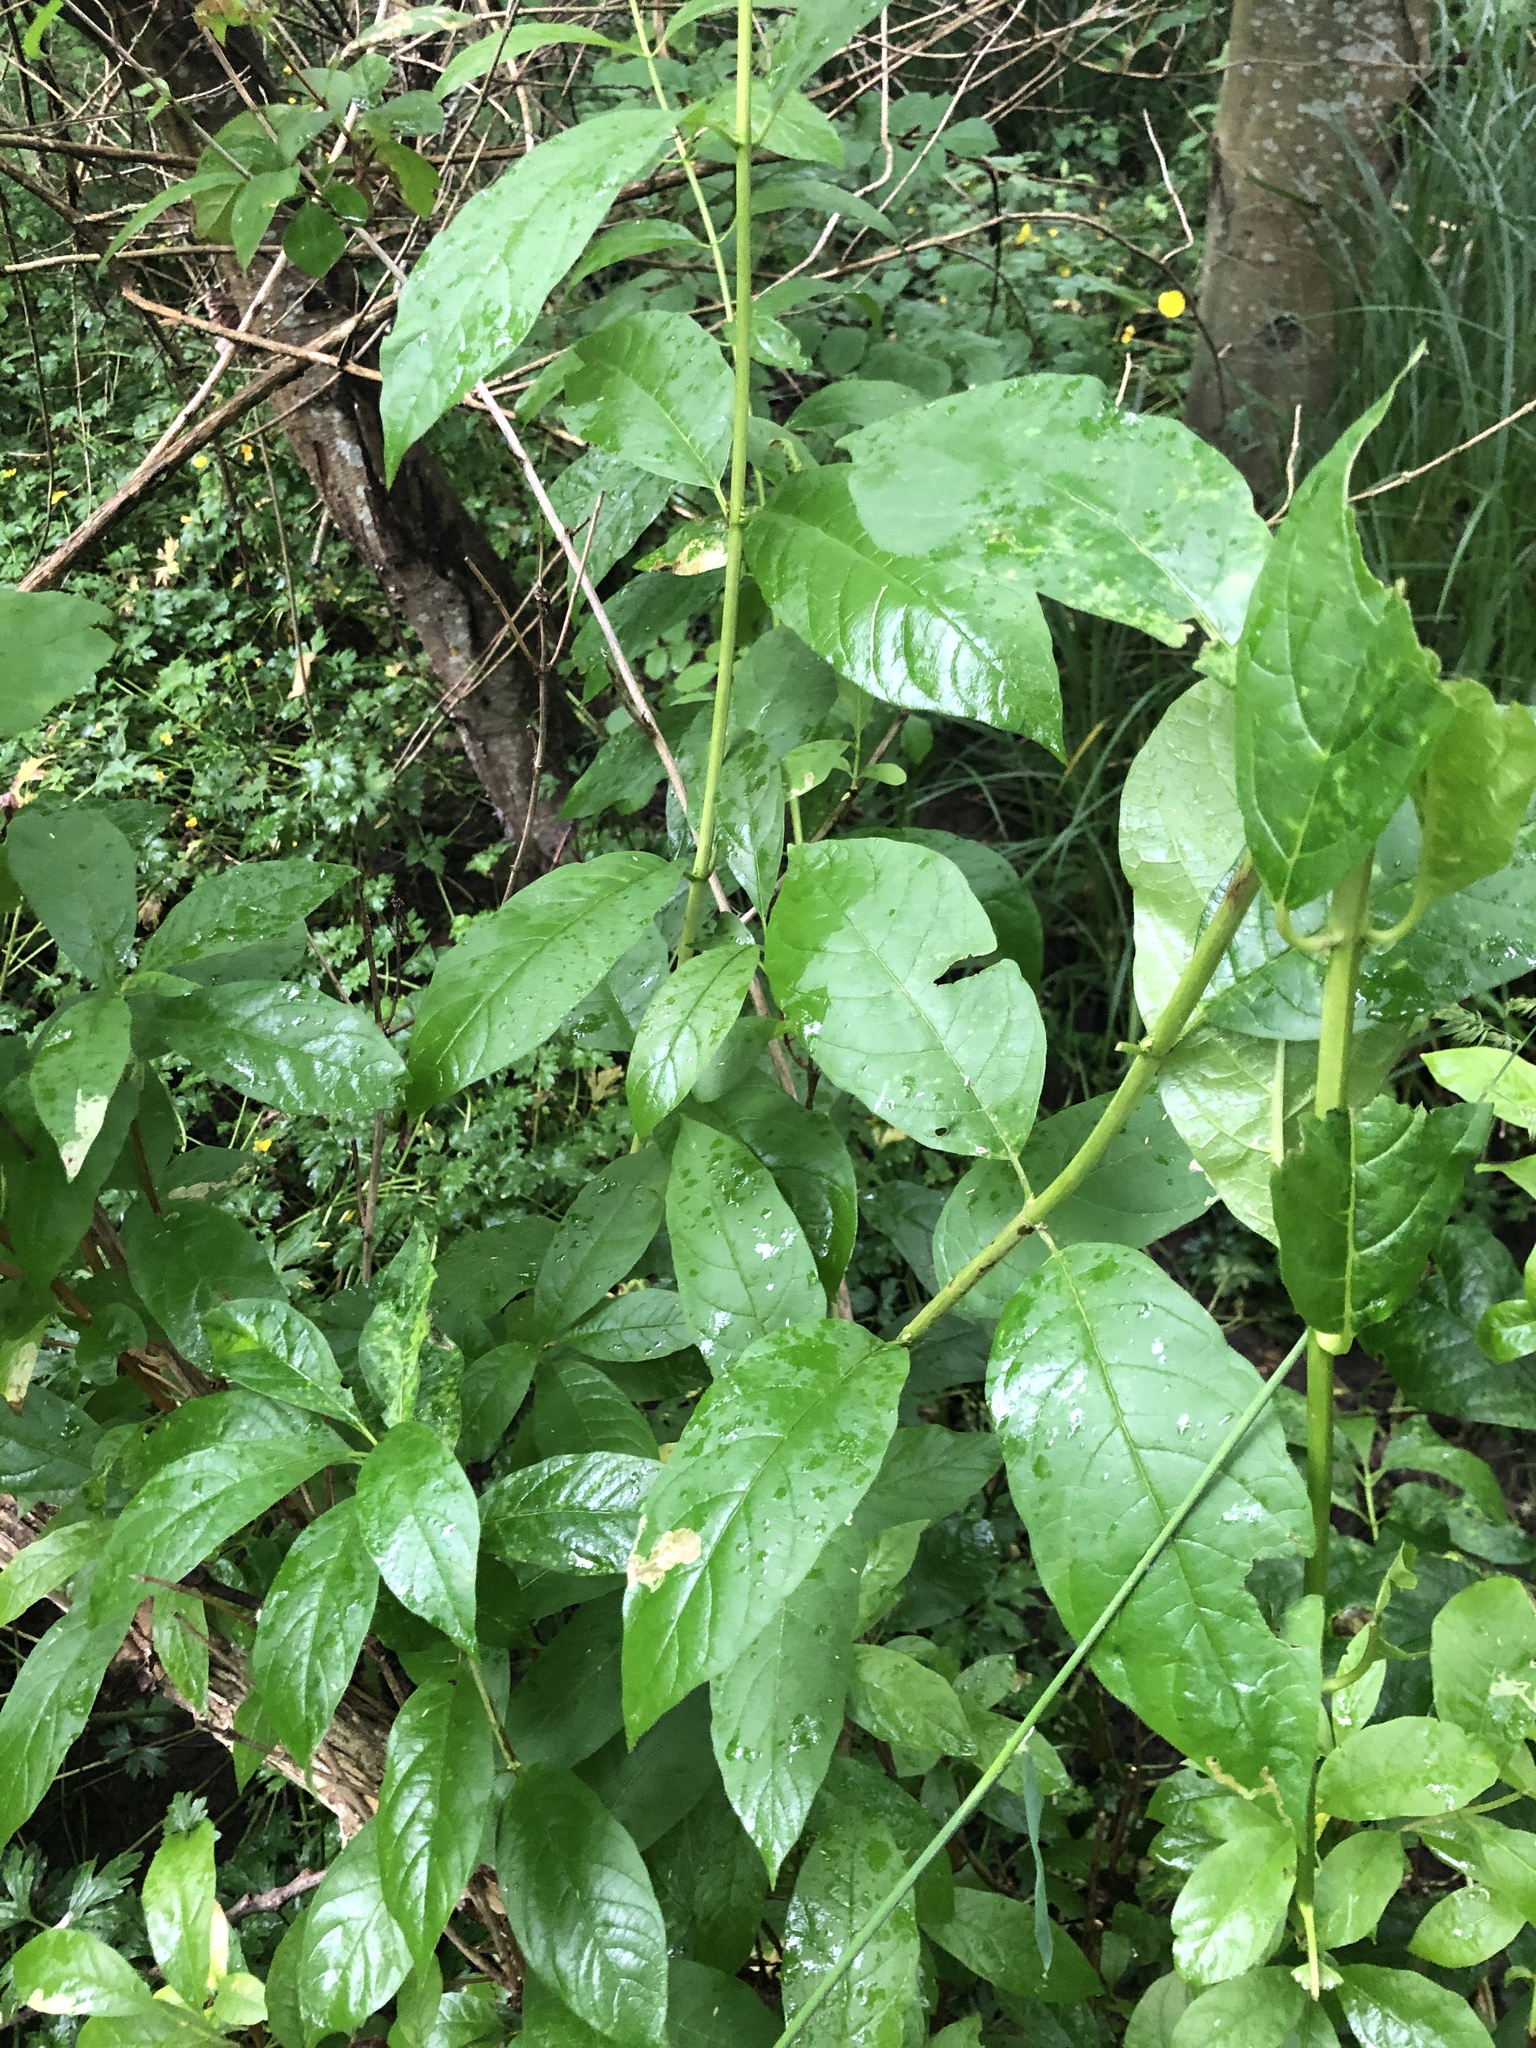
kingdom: Plantae
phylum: Tracheophyta
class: Magnoliopsida
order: Dipsacales
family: Caprifoliaceae
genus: Lonicera
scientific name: Lonicera involucrata
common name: Californian honeysuckle
